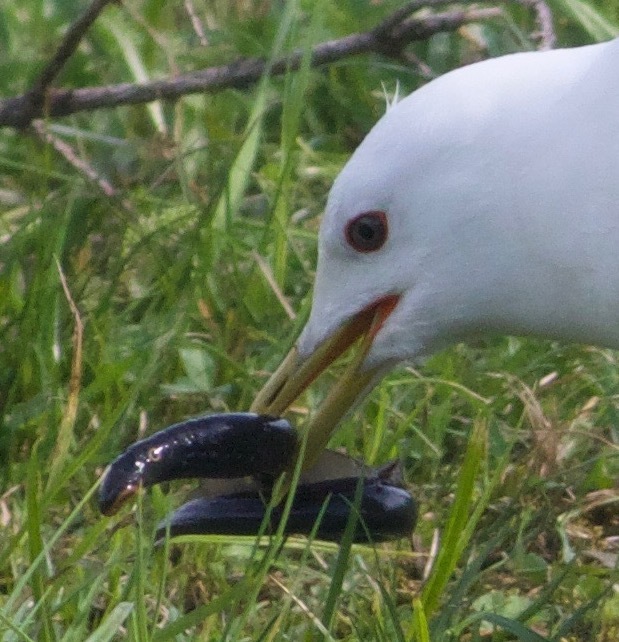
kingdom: Animalia
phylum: Chordata
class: Petromyzonti
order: Petromyzontiformes
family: Petromyzontidae
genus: Lampetra
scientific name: Lampetra fluviatilis
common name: River lamprey
